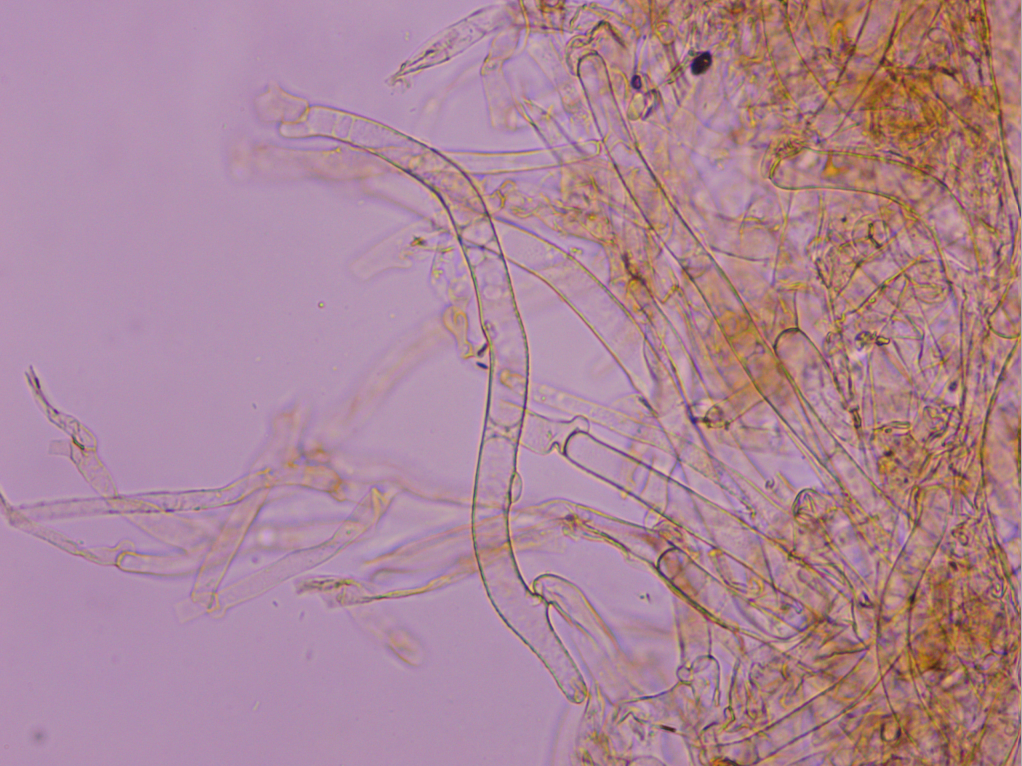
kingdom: Fungi
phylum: Basidiomycota
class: Agaricomycetes
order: Agaricales
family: Physalacriaceae
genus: Flammulina
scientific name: Flammulina elastica
